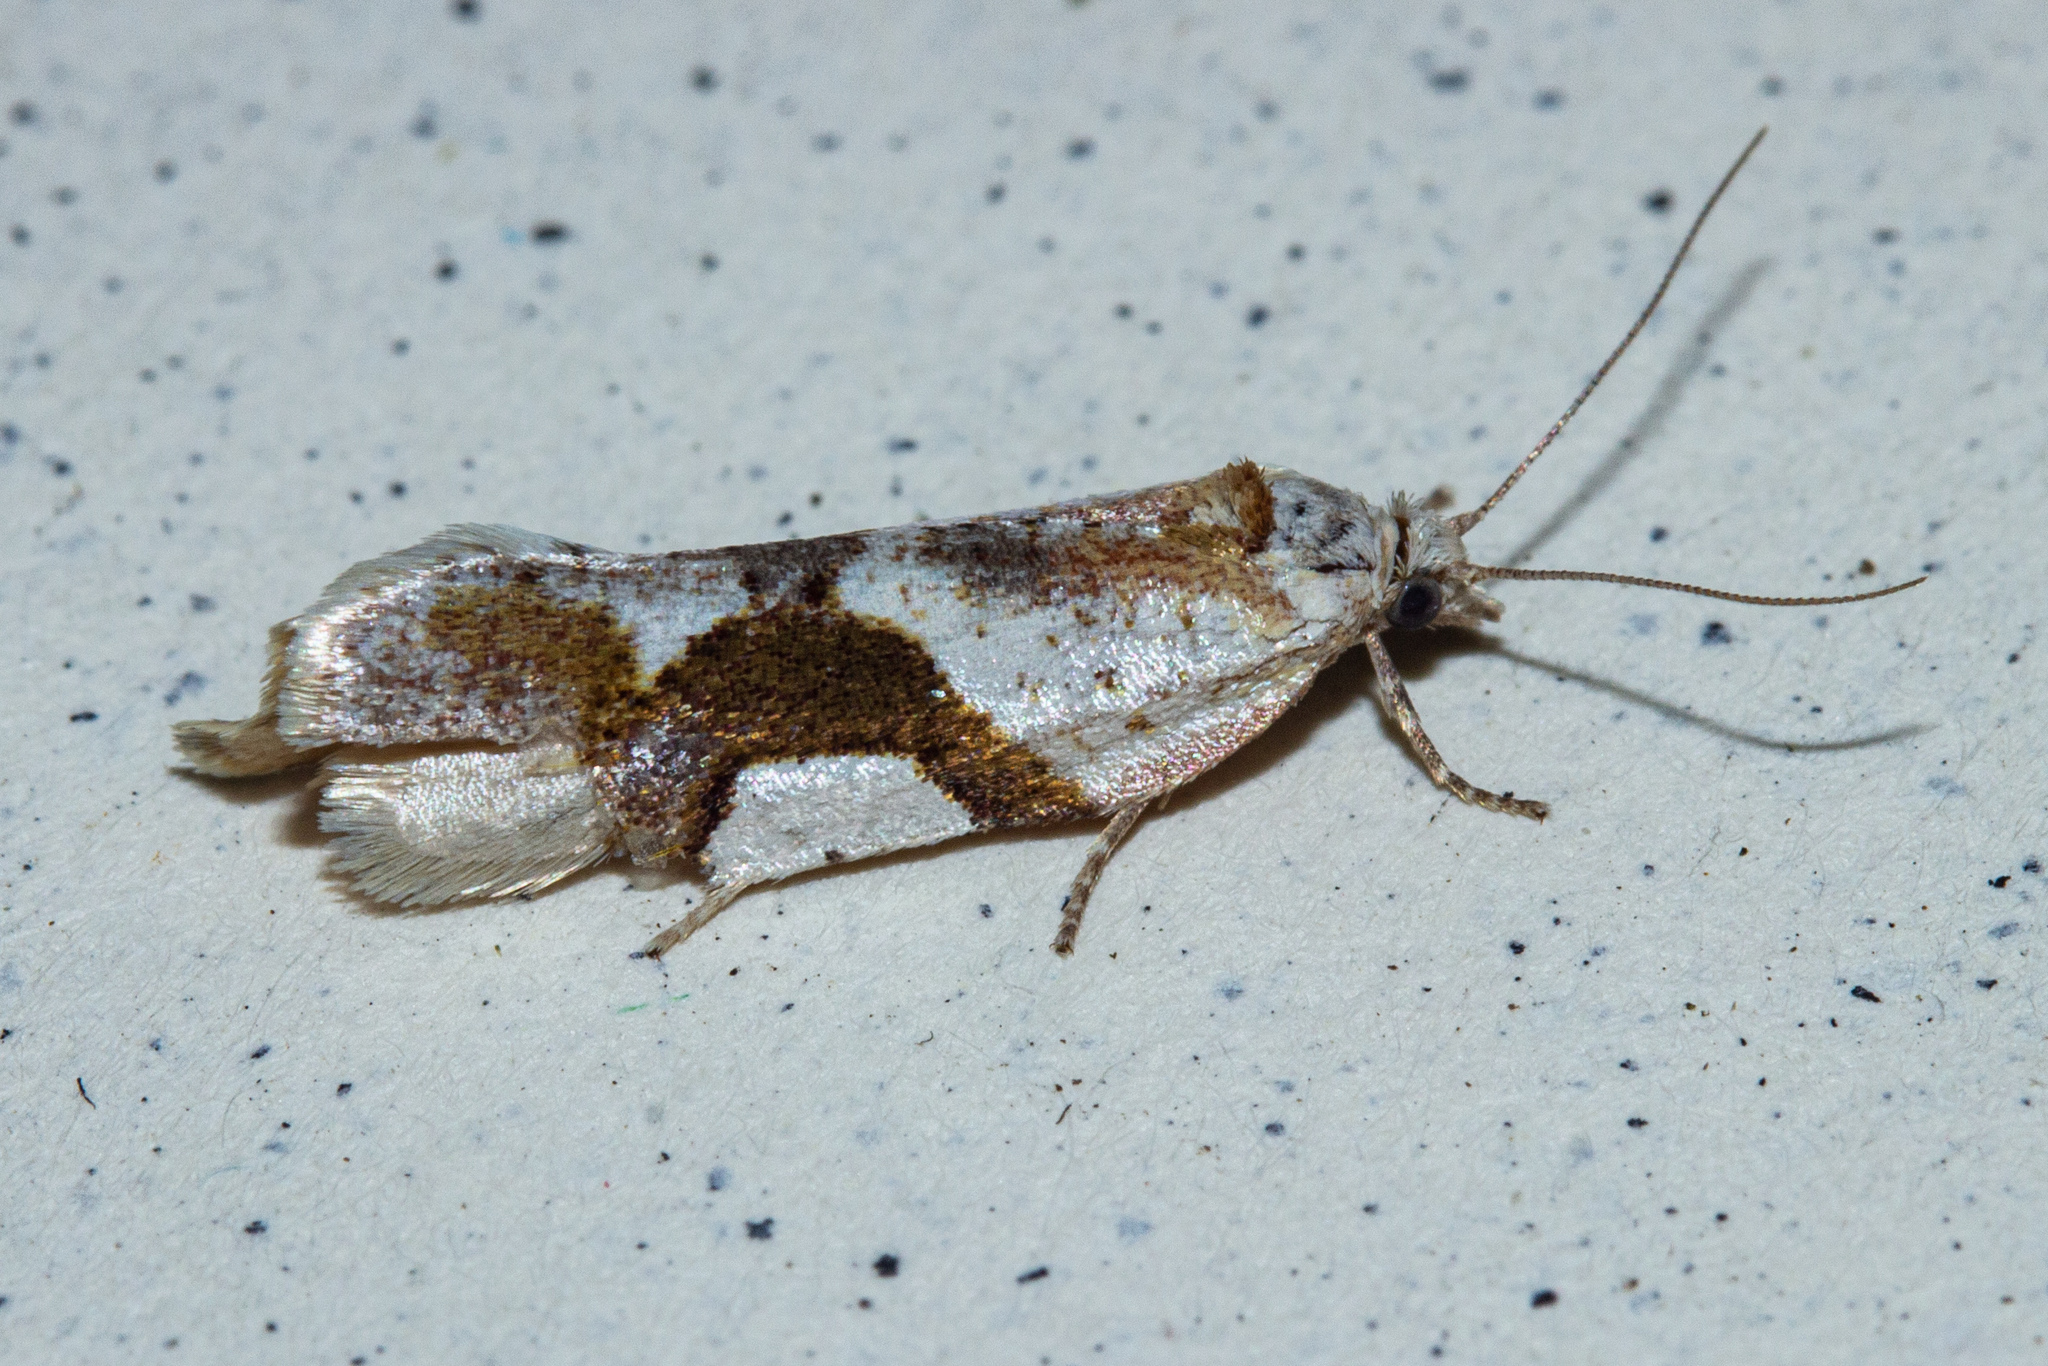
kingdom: Animalia
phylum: Arthropoda
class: Insecta
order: Lepidoptera
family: Tortricidae
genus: Pyrgotis
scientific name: Pyrgotis plagiatana
